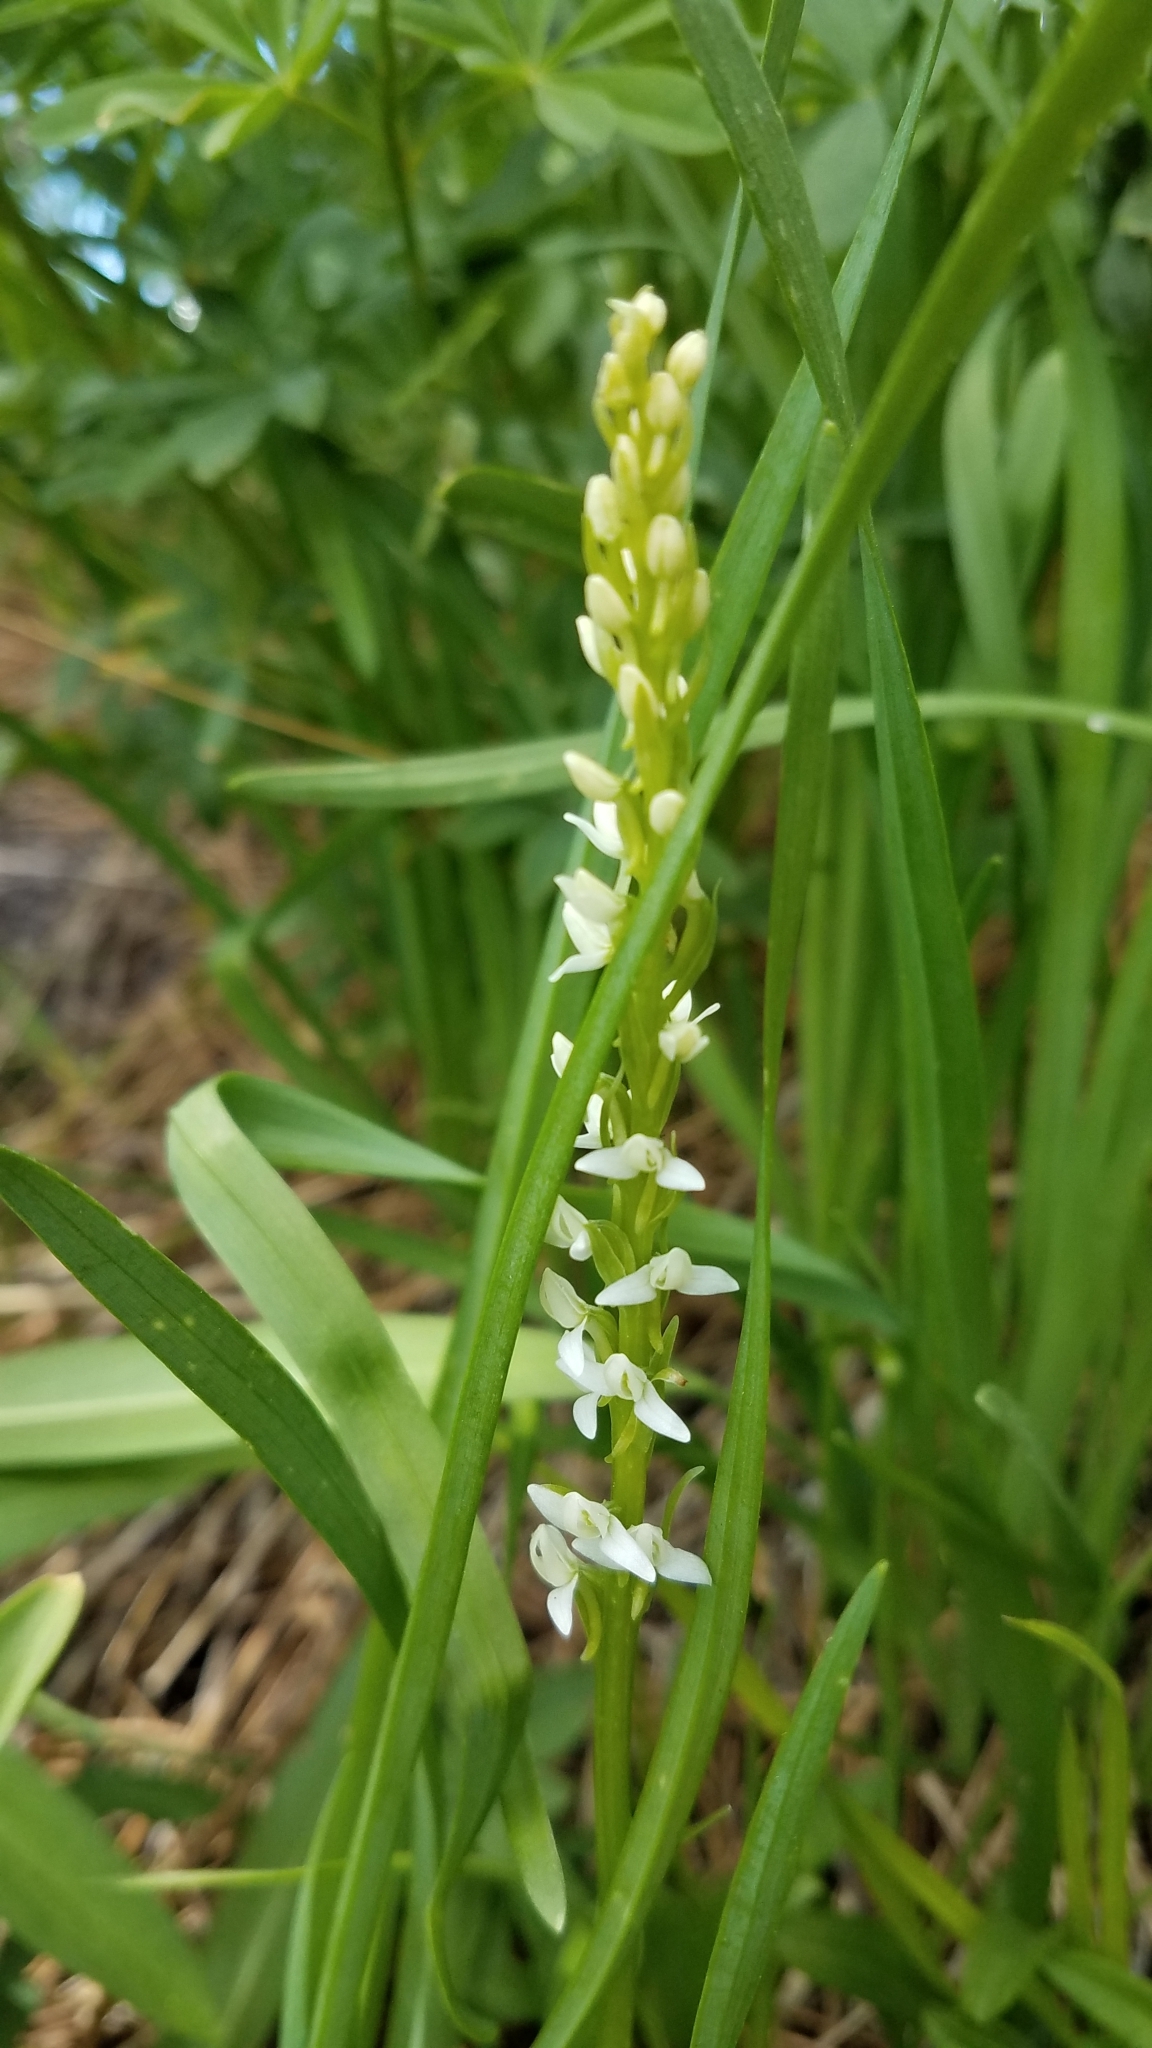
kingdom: Plantae
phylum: Tracheophyta
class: Liliopsida
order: Asparagales
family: Orchidaceae
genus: Platanthera
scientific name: Platanthera dilatata
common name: Bog candles
